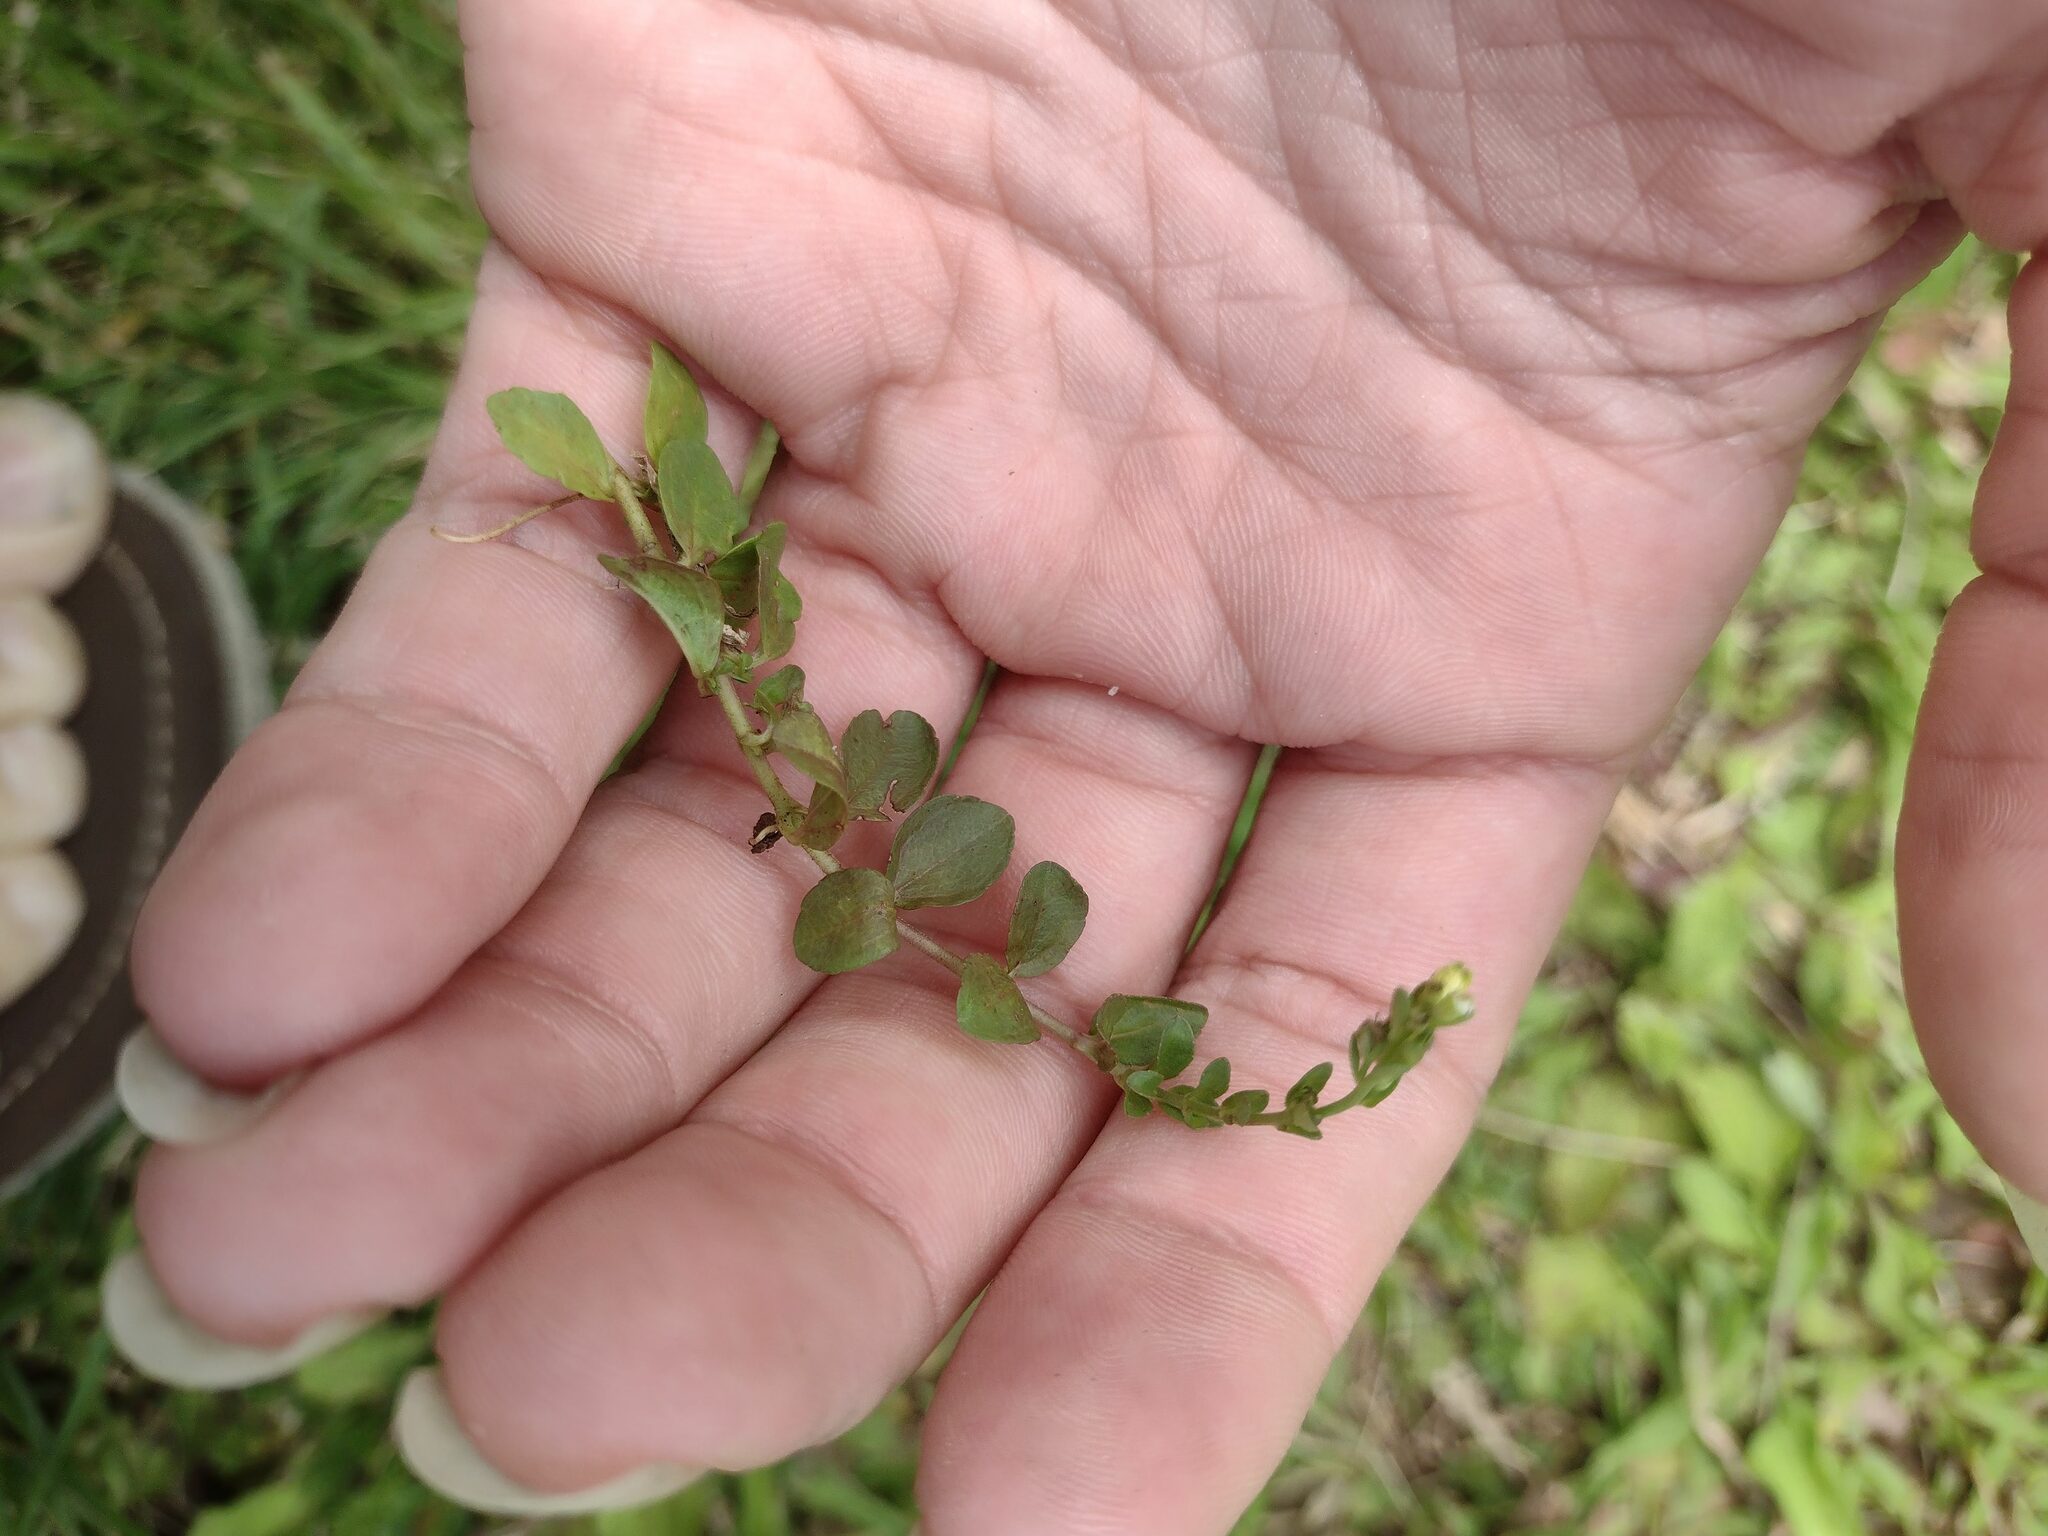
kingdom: Plantae
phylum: Tracheophyta
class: Magnoliopsida
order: Lamiales
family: Plantaginaceae
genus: Veronica
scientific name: Veronica serpyllifolia
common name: Thyme-leaved speedwell
